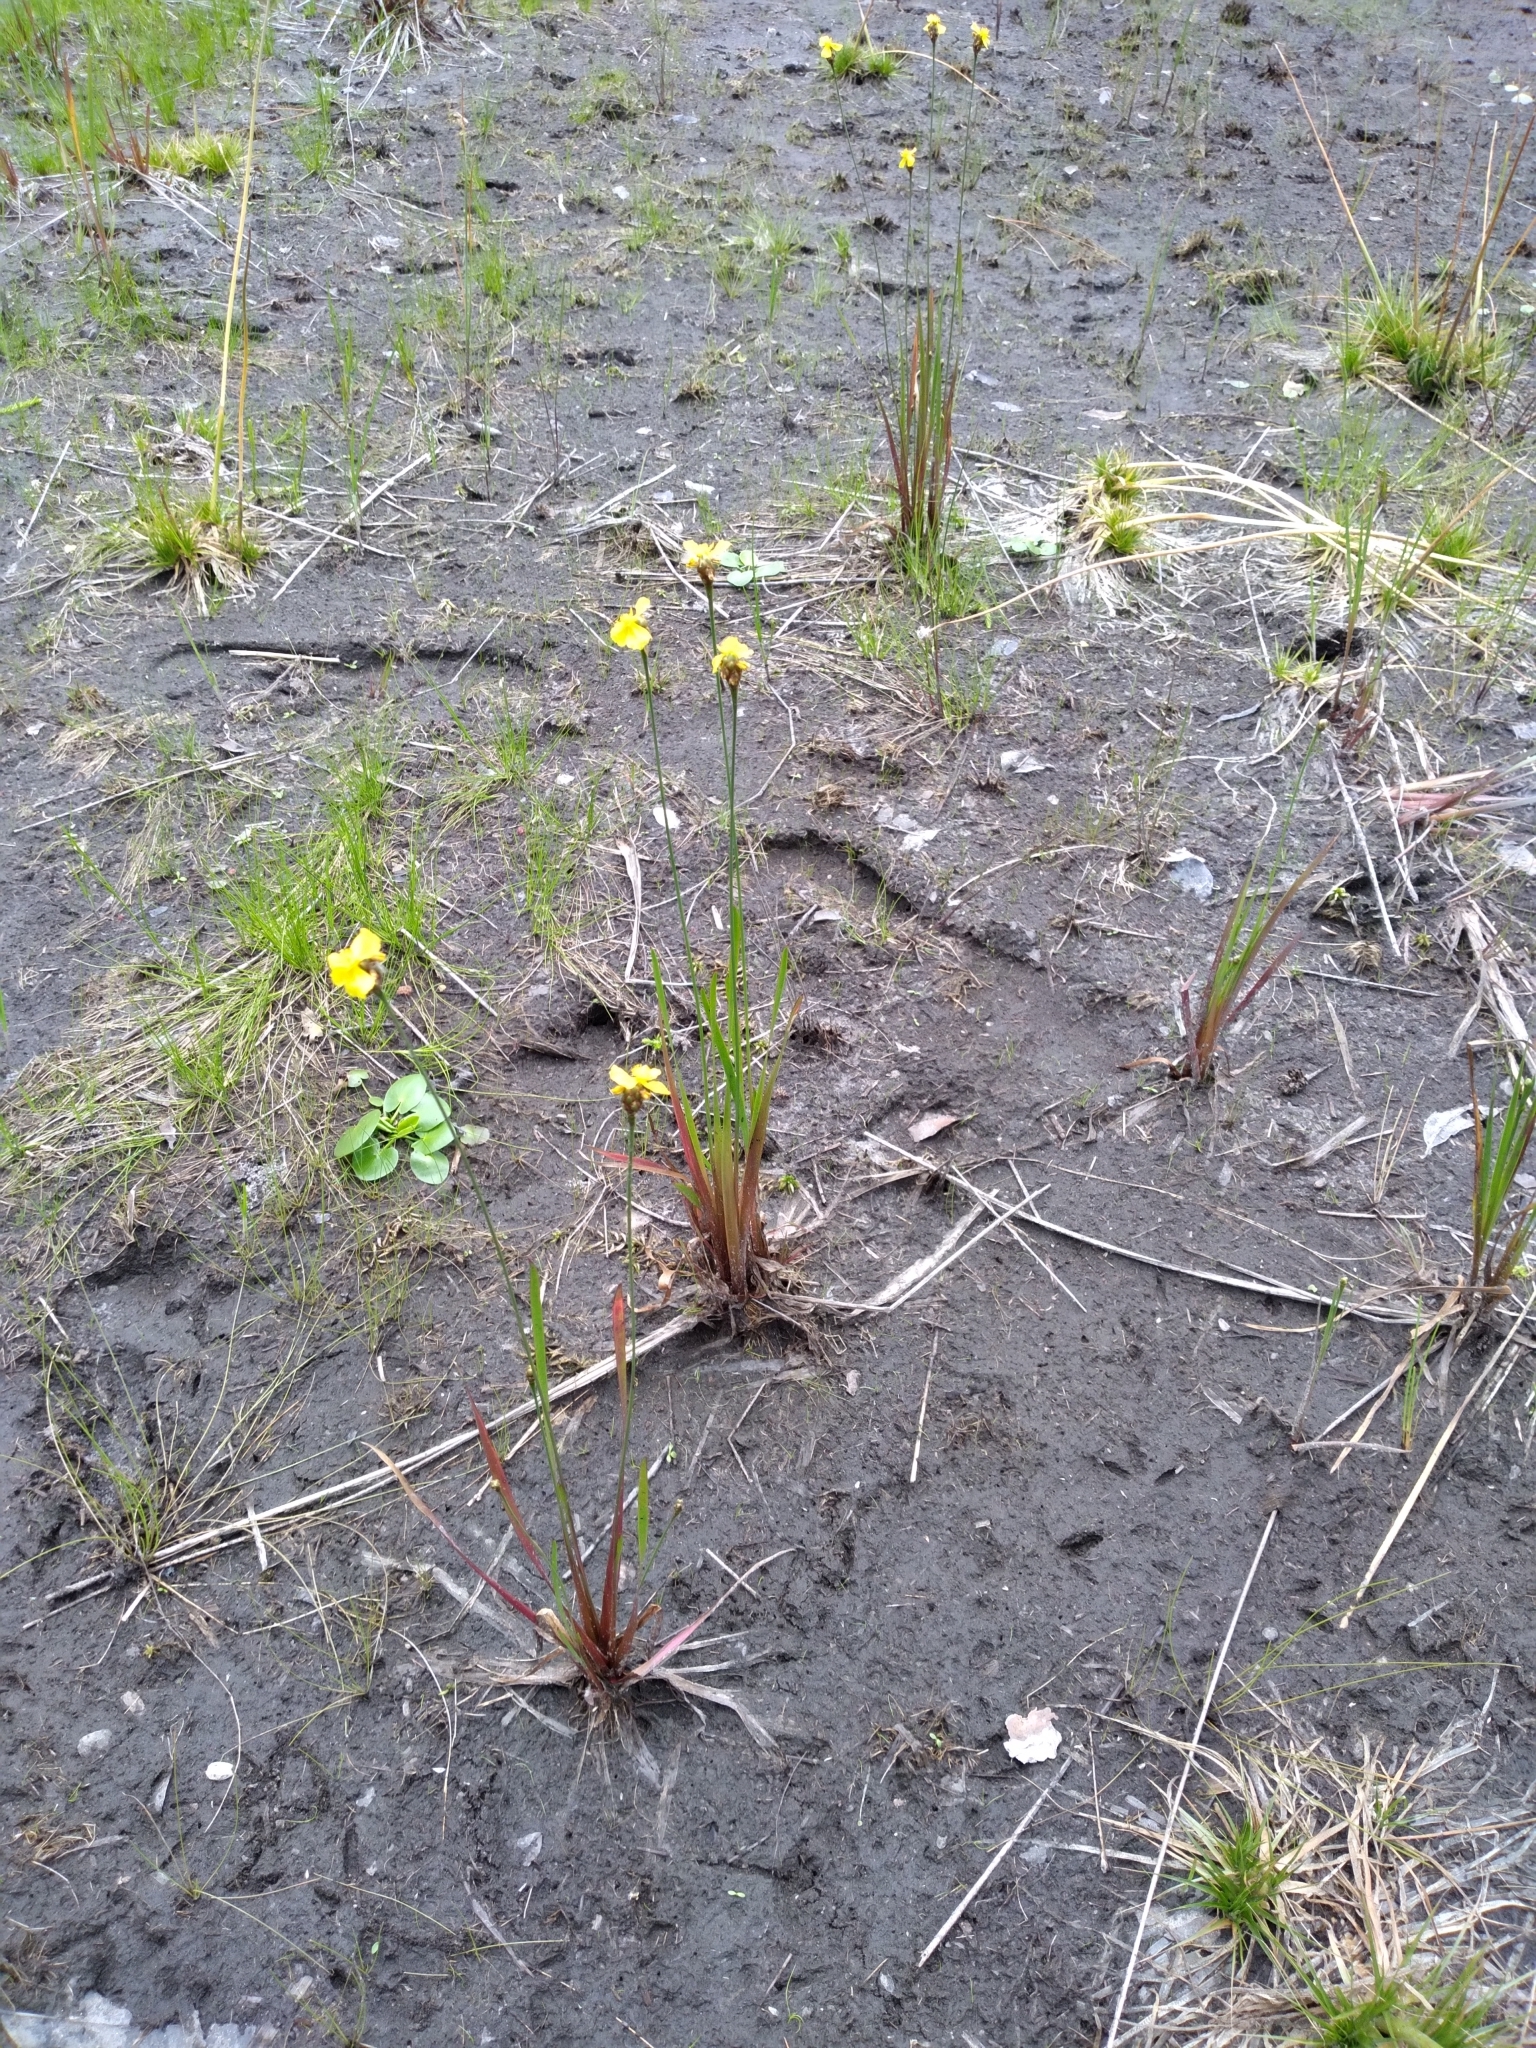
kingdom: Plantae
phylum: Tracheophyta
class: Liliopsida
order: Poales
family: Xyridaceae
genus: Xyris
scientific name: Xyris smalliana
